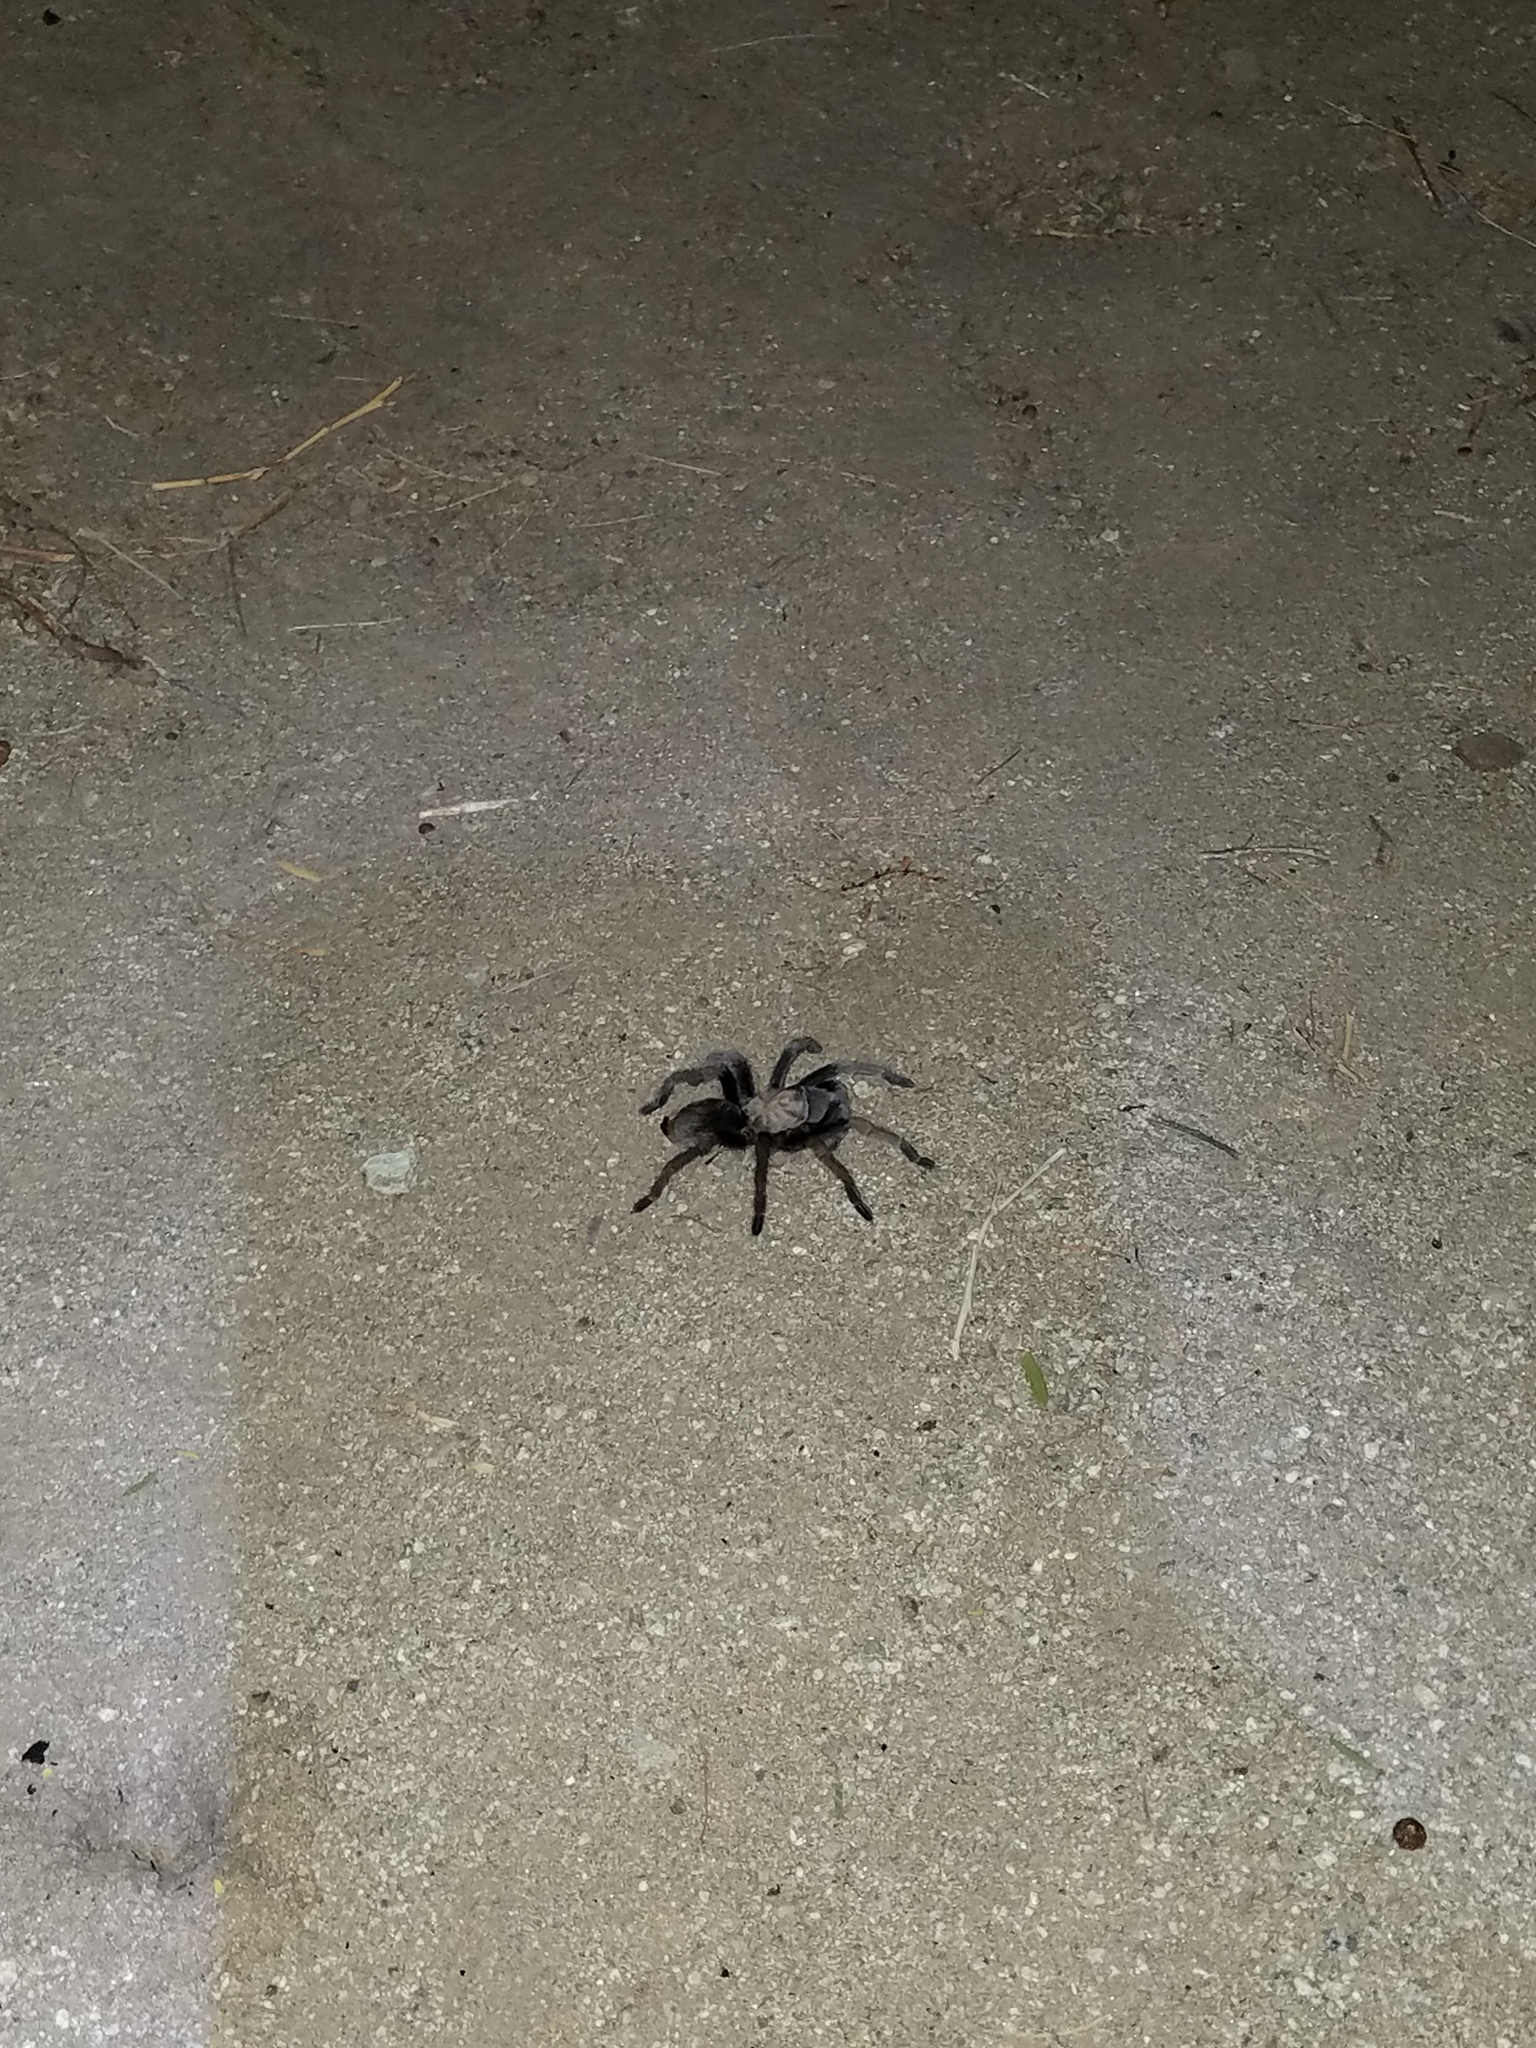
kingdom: Animalia
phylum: Arthropoda
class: Arachnida
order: Araneae
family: Theraphosidae
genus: Aphonopelma
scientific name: Aphonopelma eutylenum
